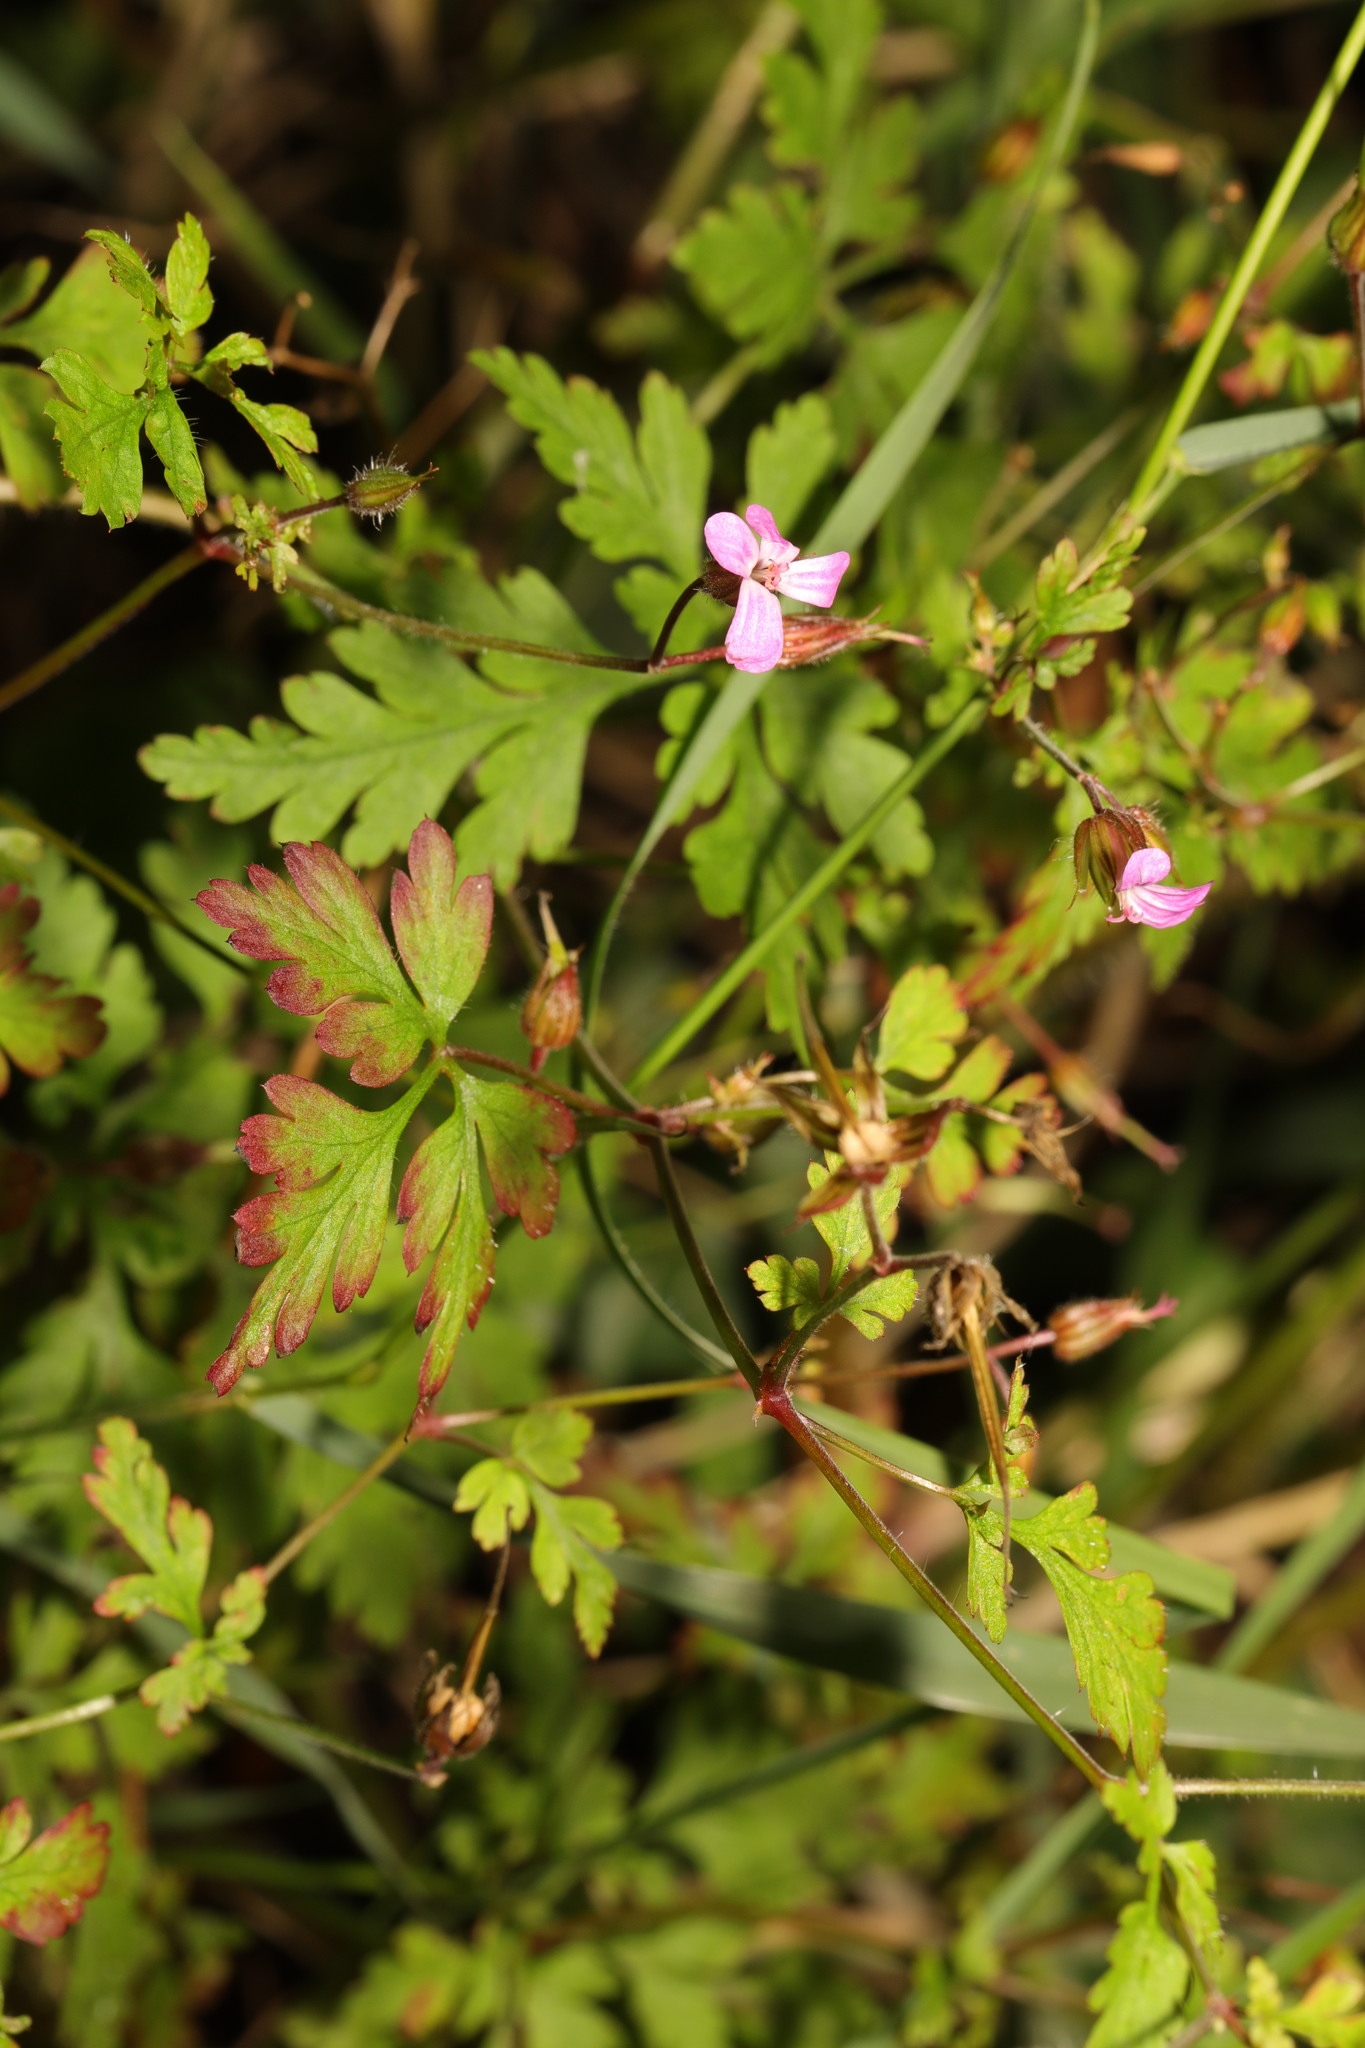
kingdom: Plantae
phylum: Tracheophyta
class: Magnoliopsida
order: Geraniales
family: Geraniaceae
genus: Geranium
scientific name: Geranium robertianum
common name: Herb-robert
